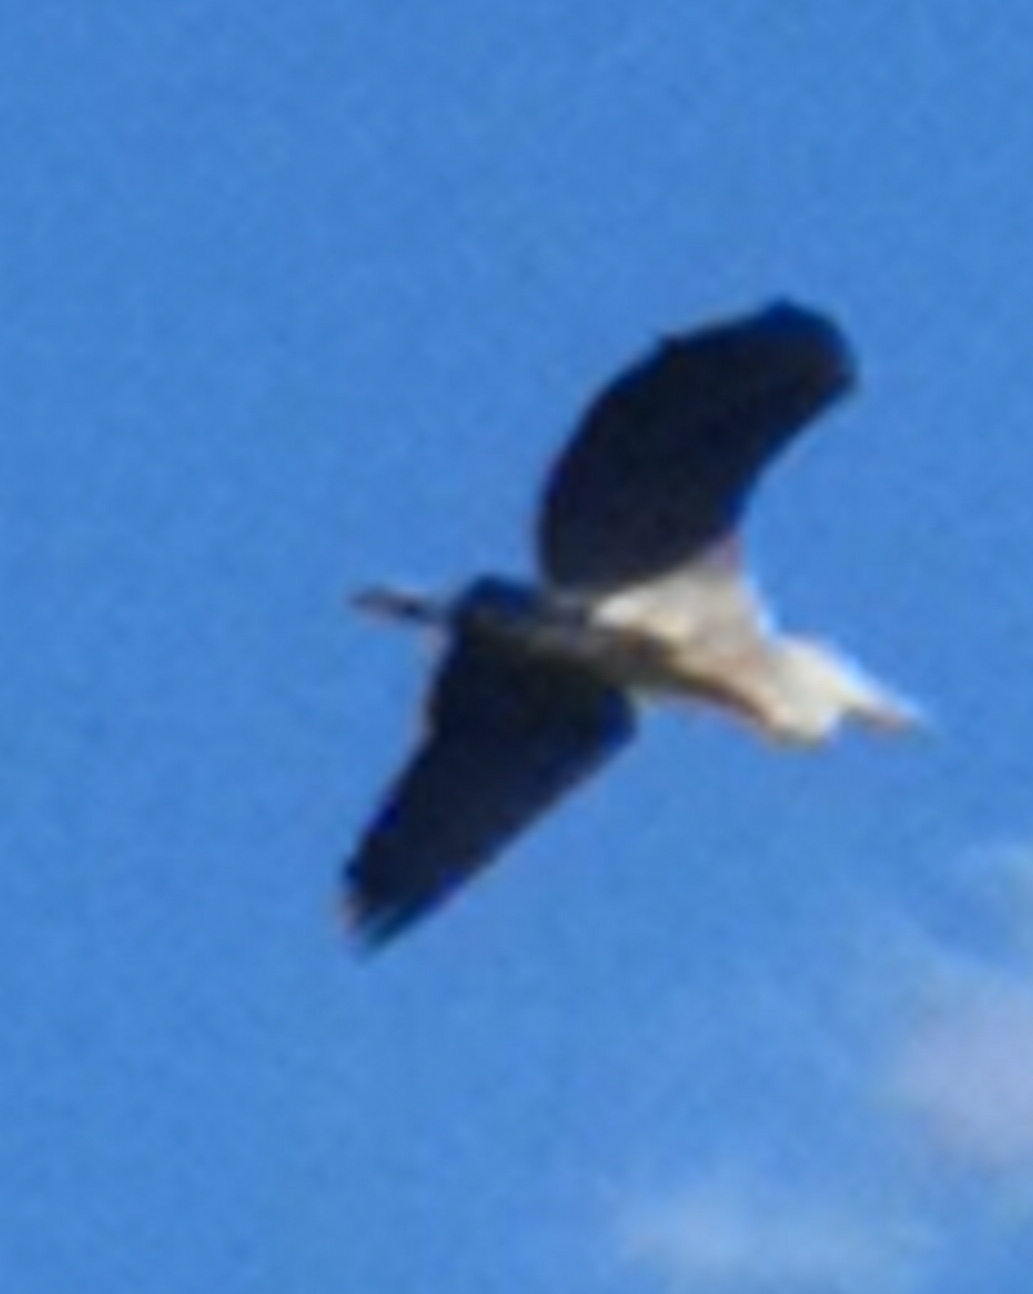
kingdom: Animalia
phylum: Chordata
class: Aves
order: Pelecaniformes
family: Ardeidae
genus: Ardea
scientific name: Ardea cinerea
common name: Grey heron
